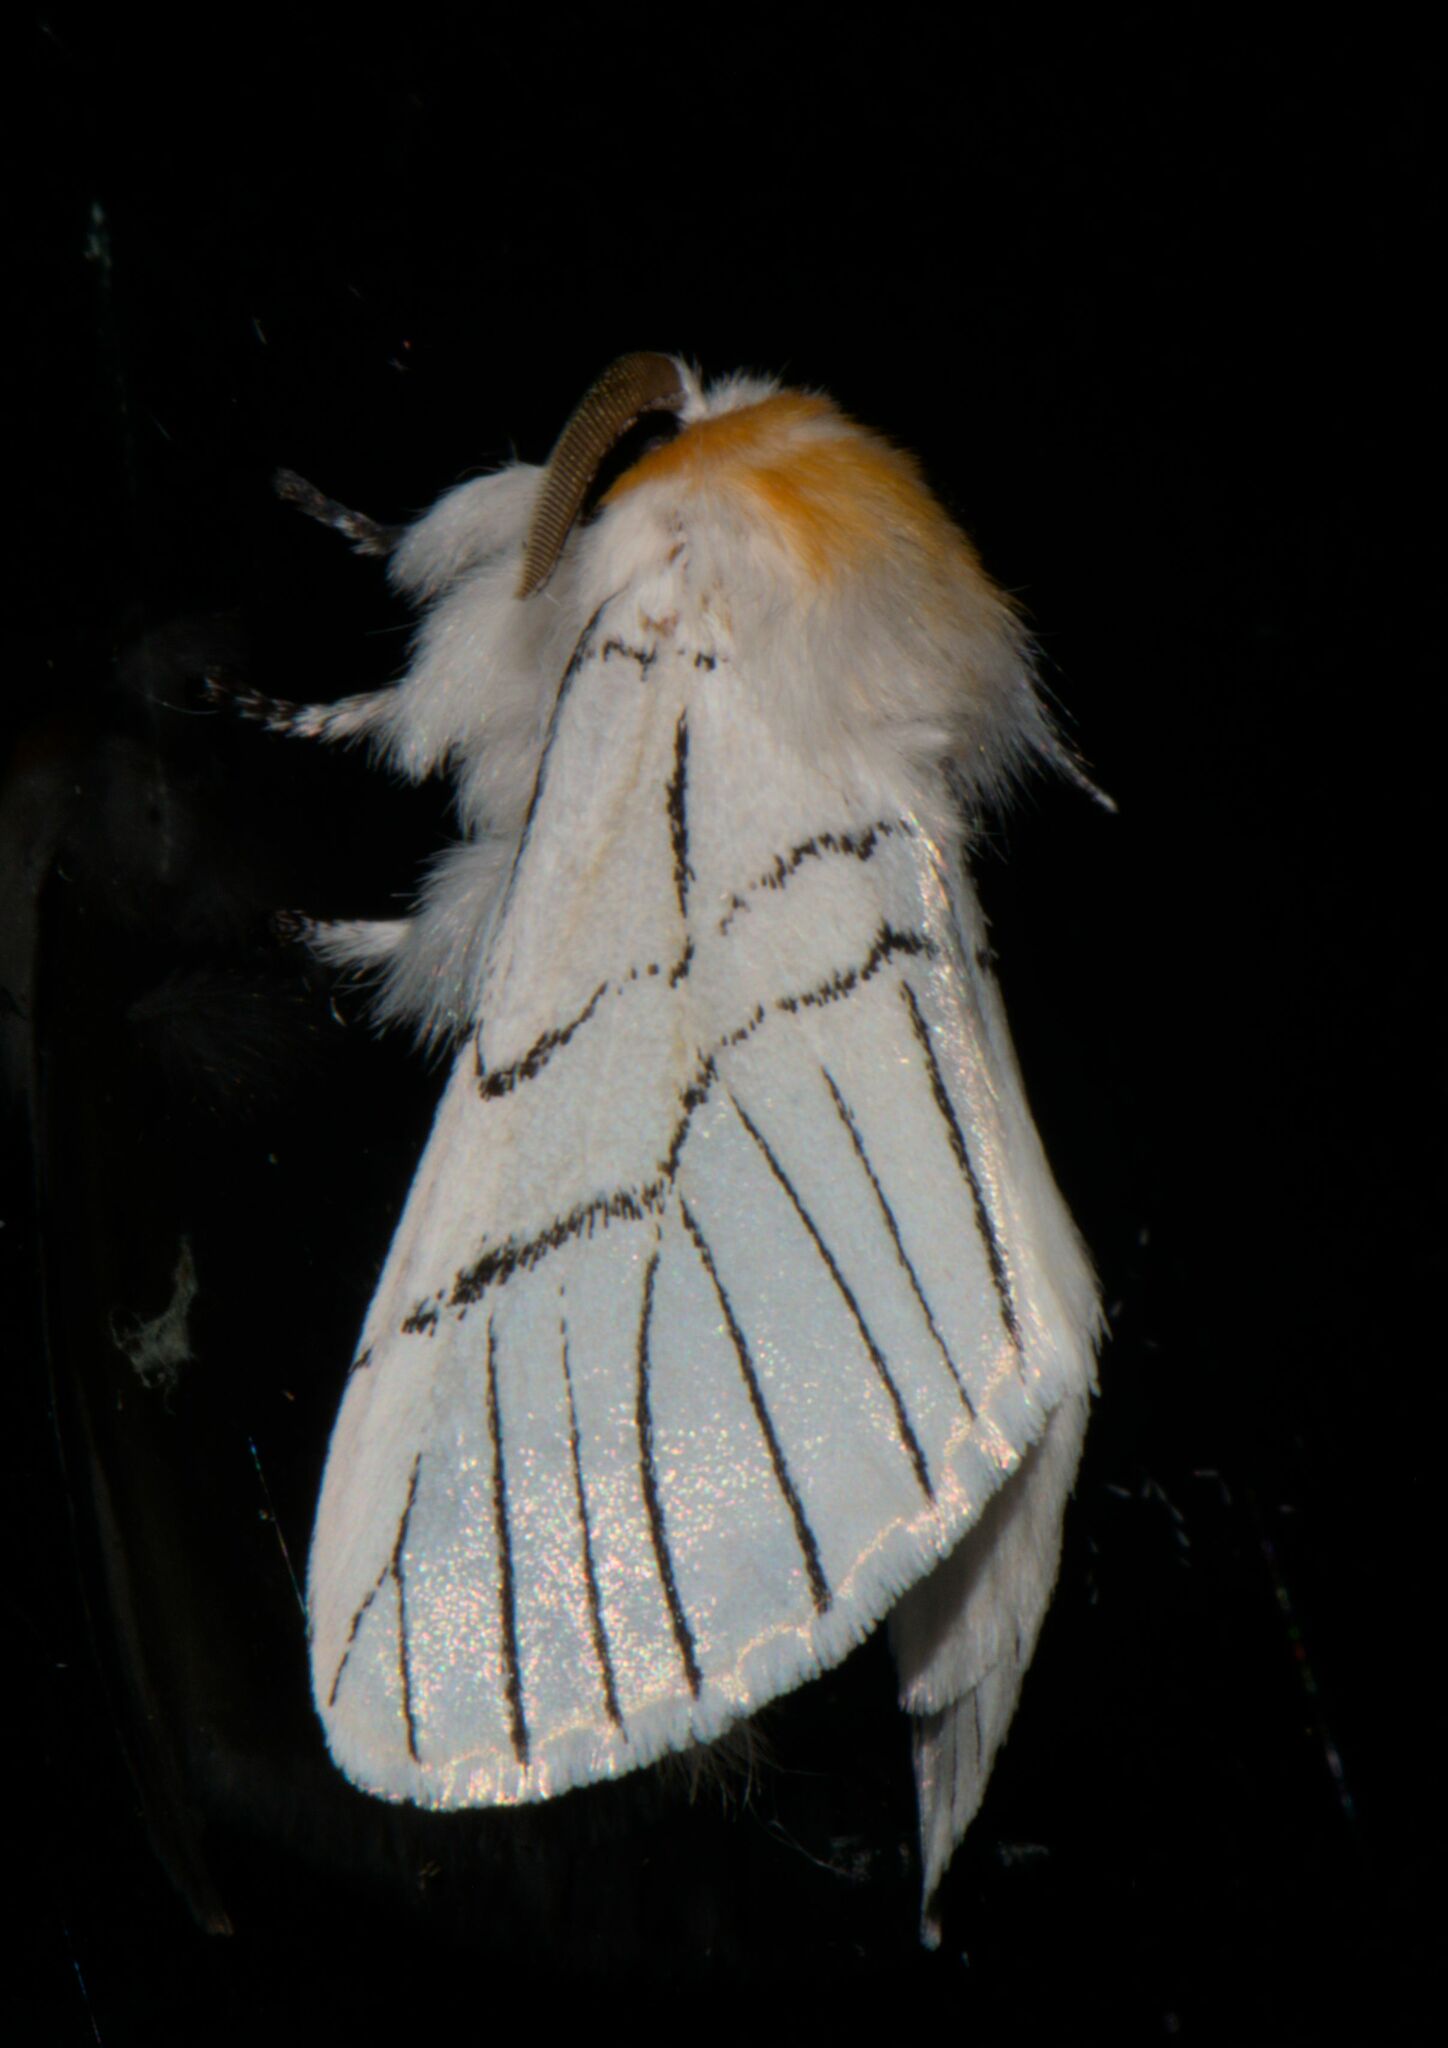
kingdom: Animalia
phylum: Arthropoda
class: Insecta
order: Lepidoptera
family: Notodontidae
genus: Oligoclona
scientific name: Oligoclona chrysolopha
